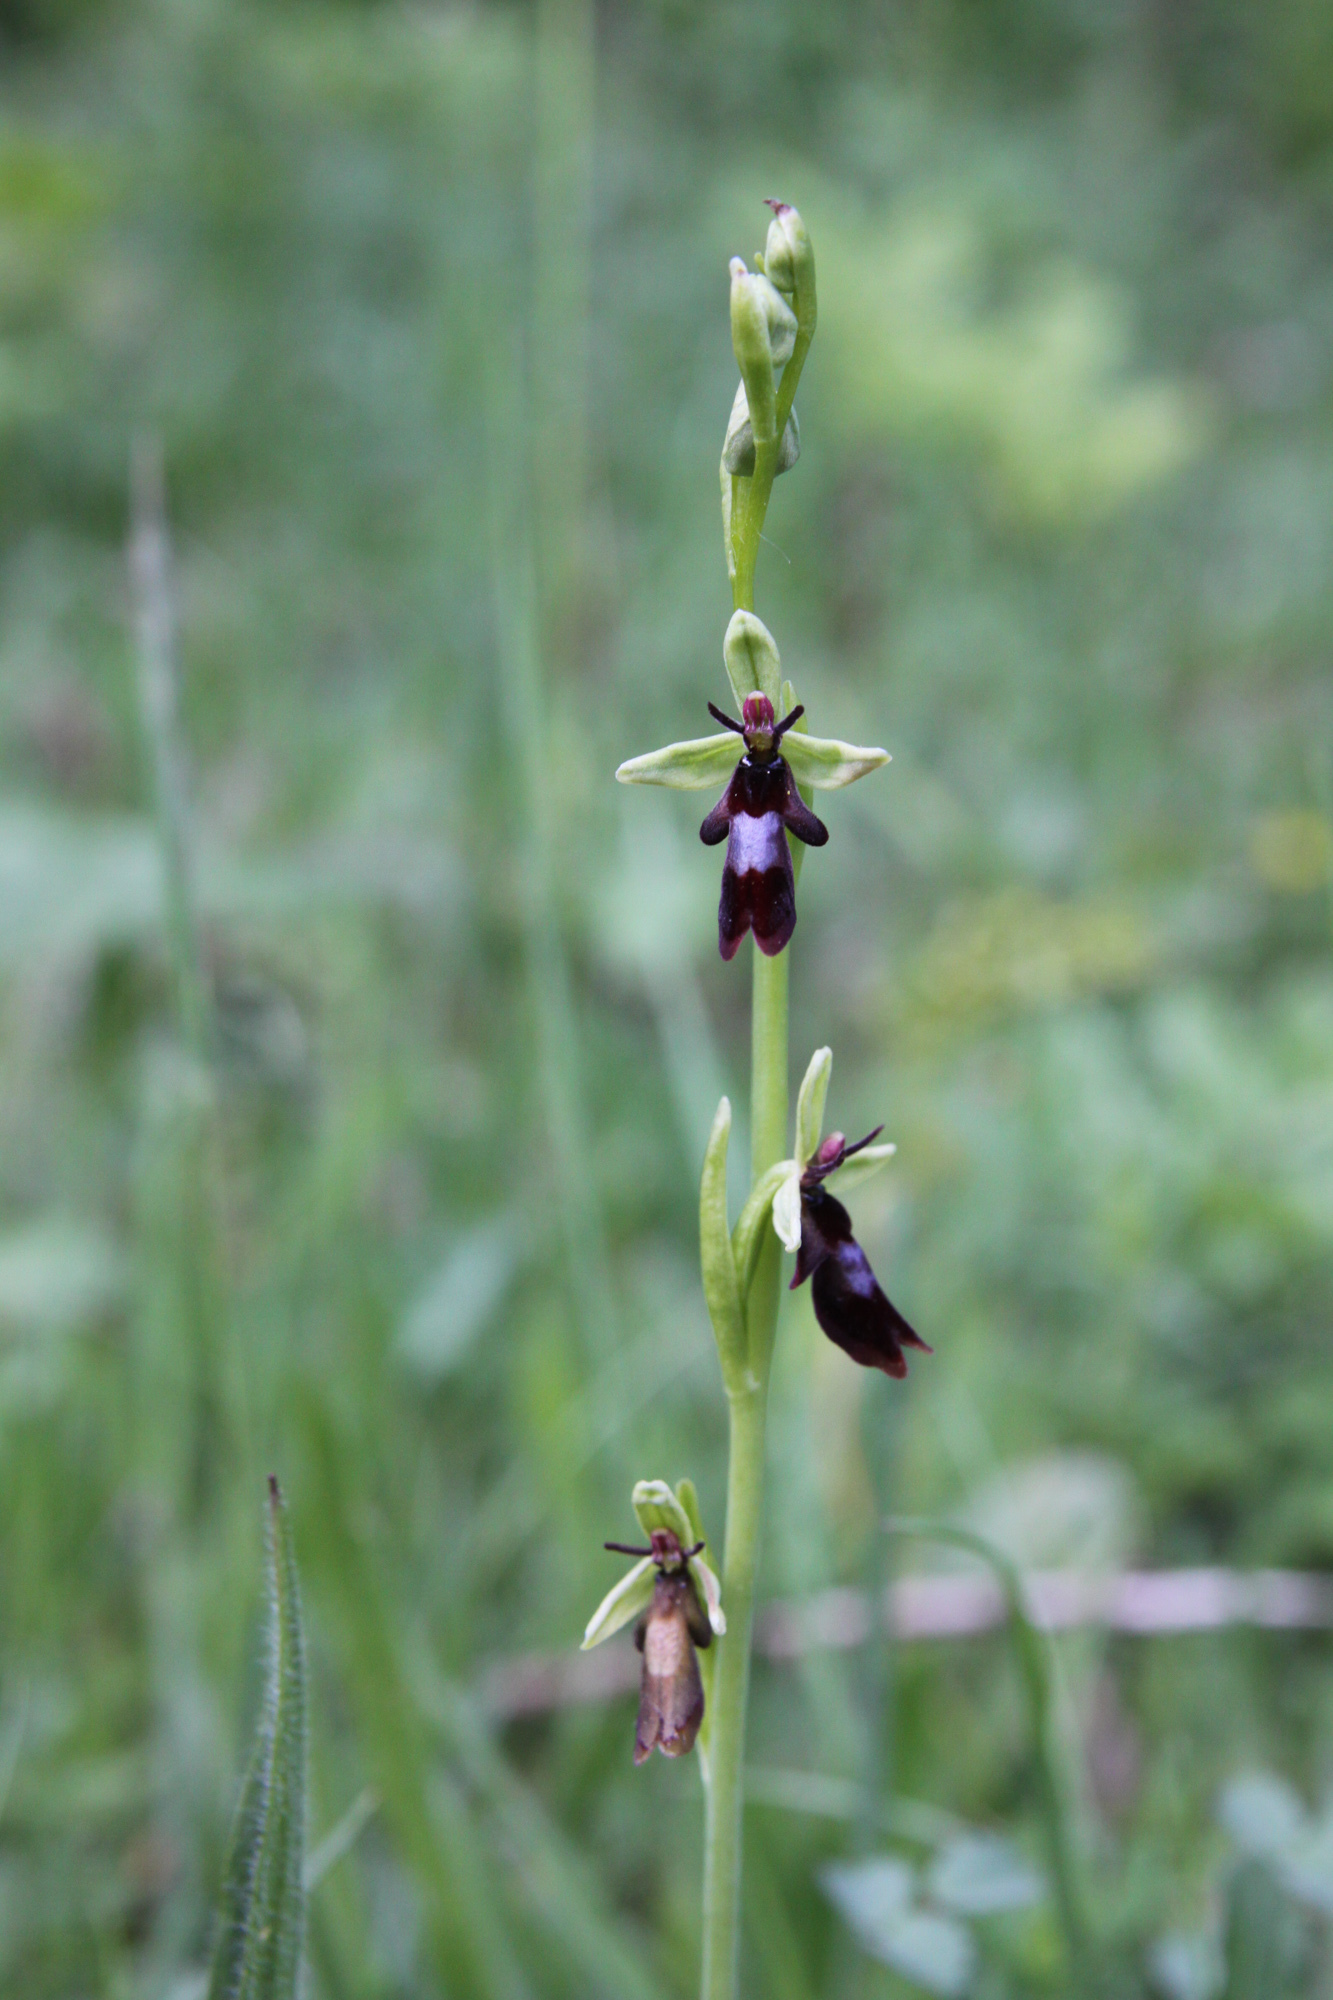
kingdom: Plantae
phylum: Tracheophyta
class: Liliopsida
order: Asparagales
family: Orchidaceae
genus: Ophrys
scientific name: Ophrys insectifera
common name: Fly orchid
